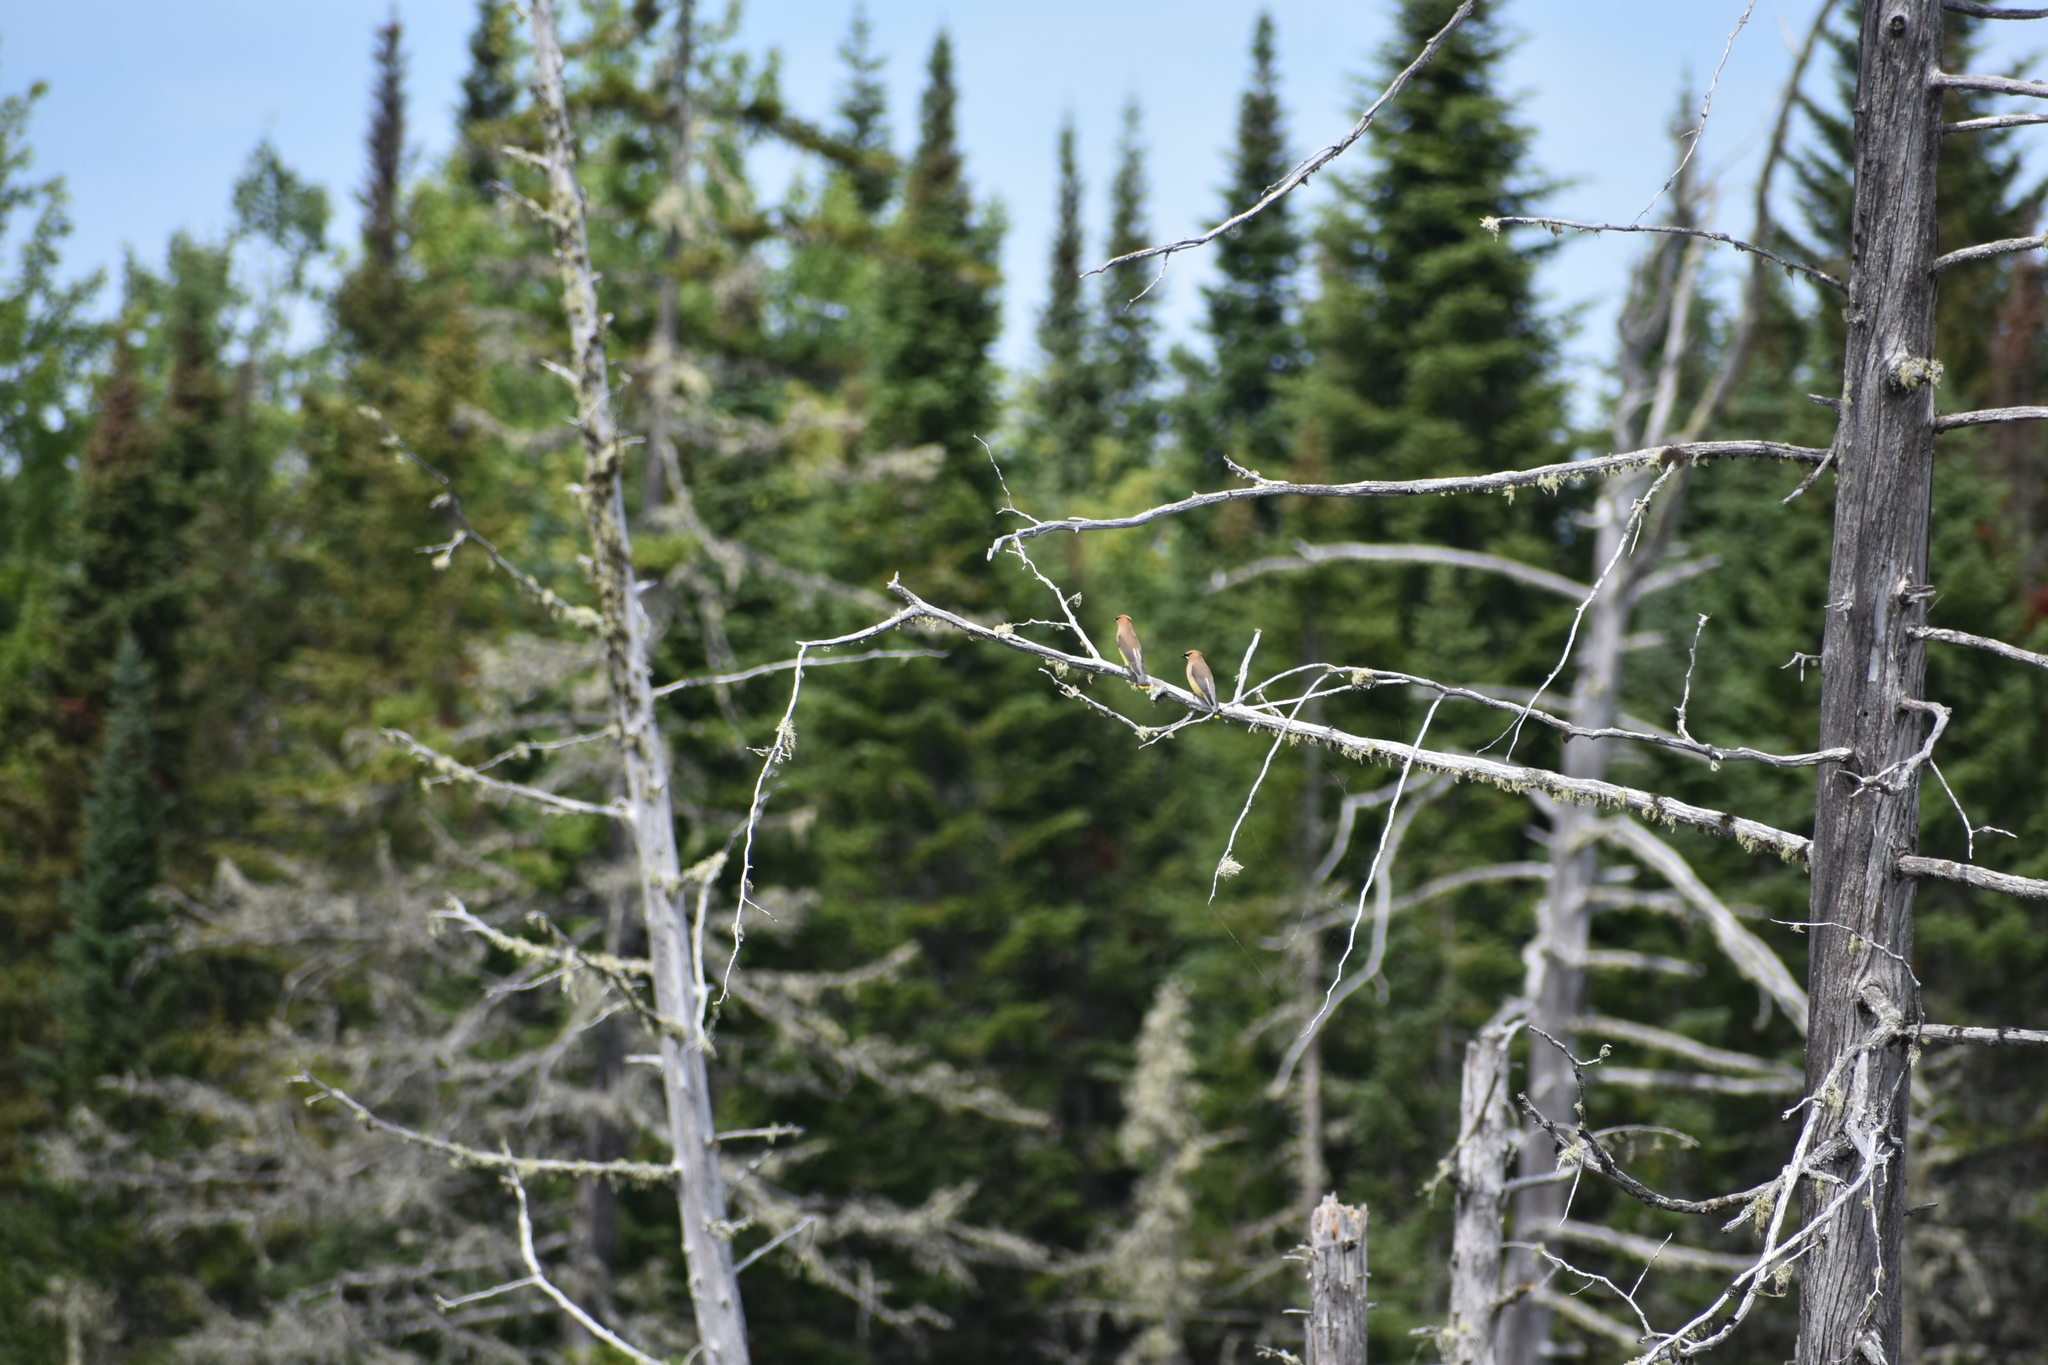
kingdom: Animalia
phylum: Chordata
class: Aves
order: Passeriformes
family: Bombycillidae
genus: Bombycilla
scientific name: Bombycilla cedrorum
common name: Cedar waxwing
